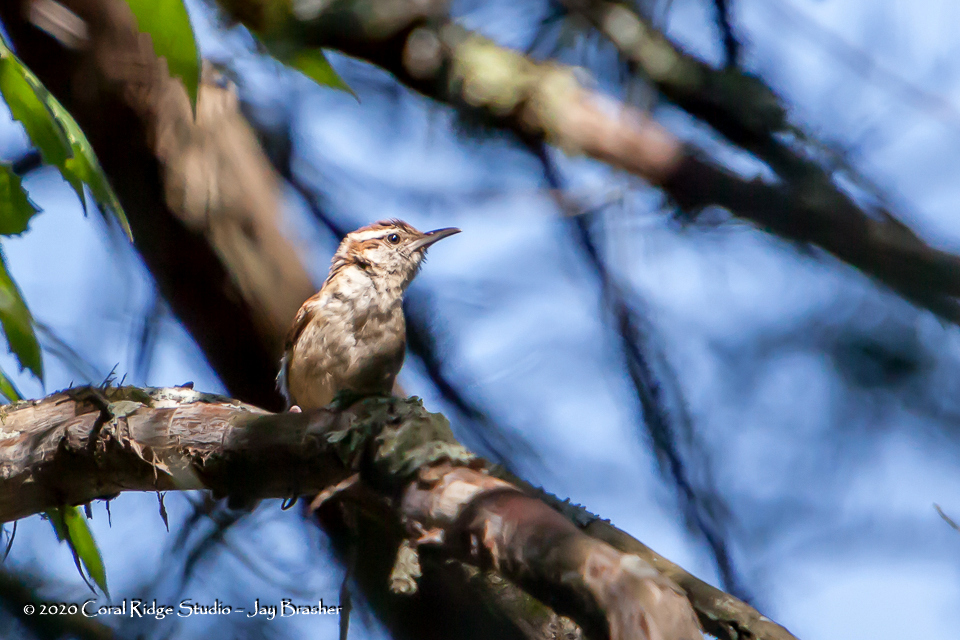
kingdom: Animalia
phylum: Chordata
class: Aves
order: Passeriformes
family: Troglodytidae
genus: Thryothorus
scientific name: Thryothorus ludovicianus
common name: Carolina wren
